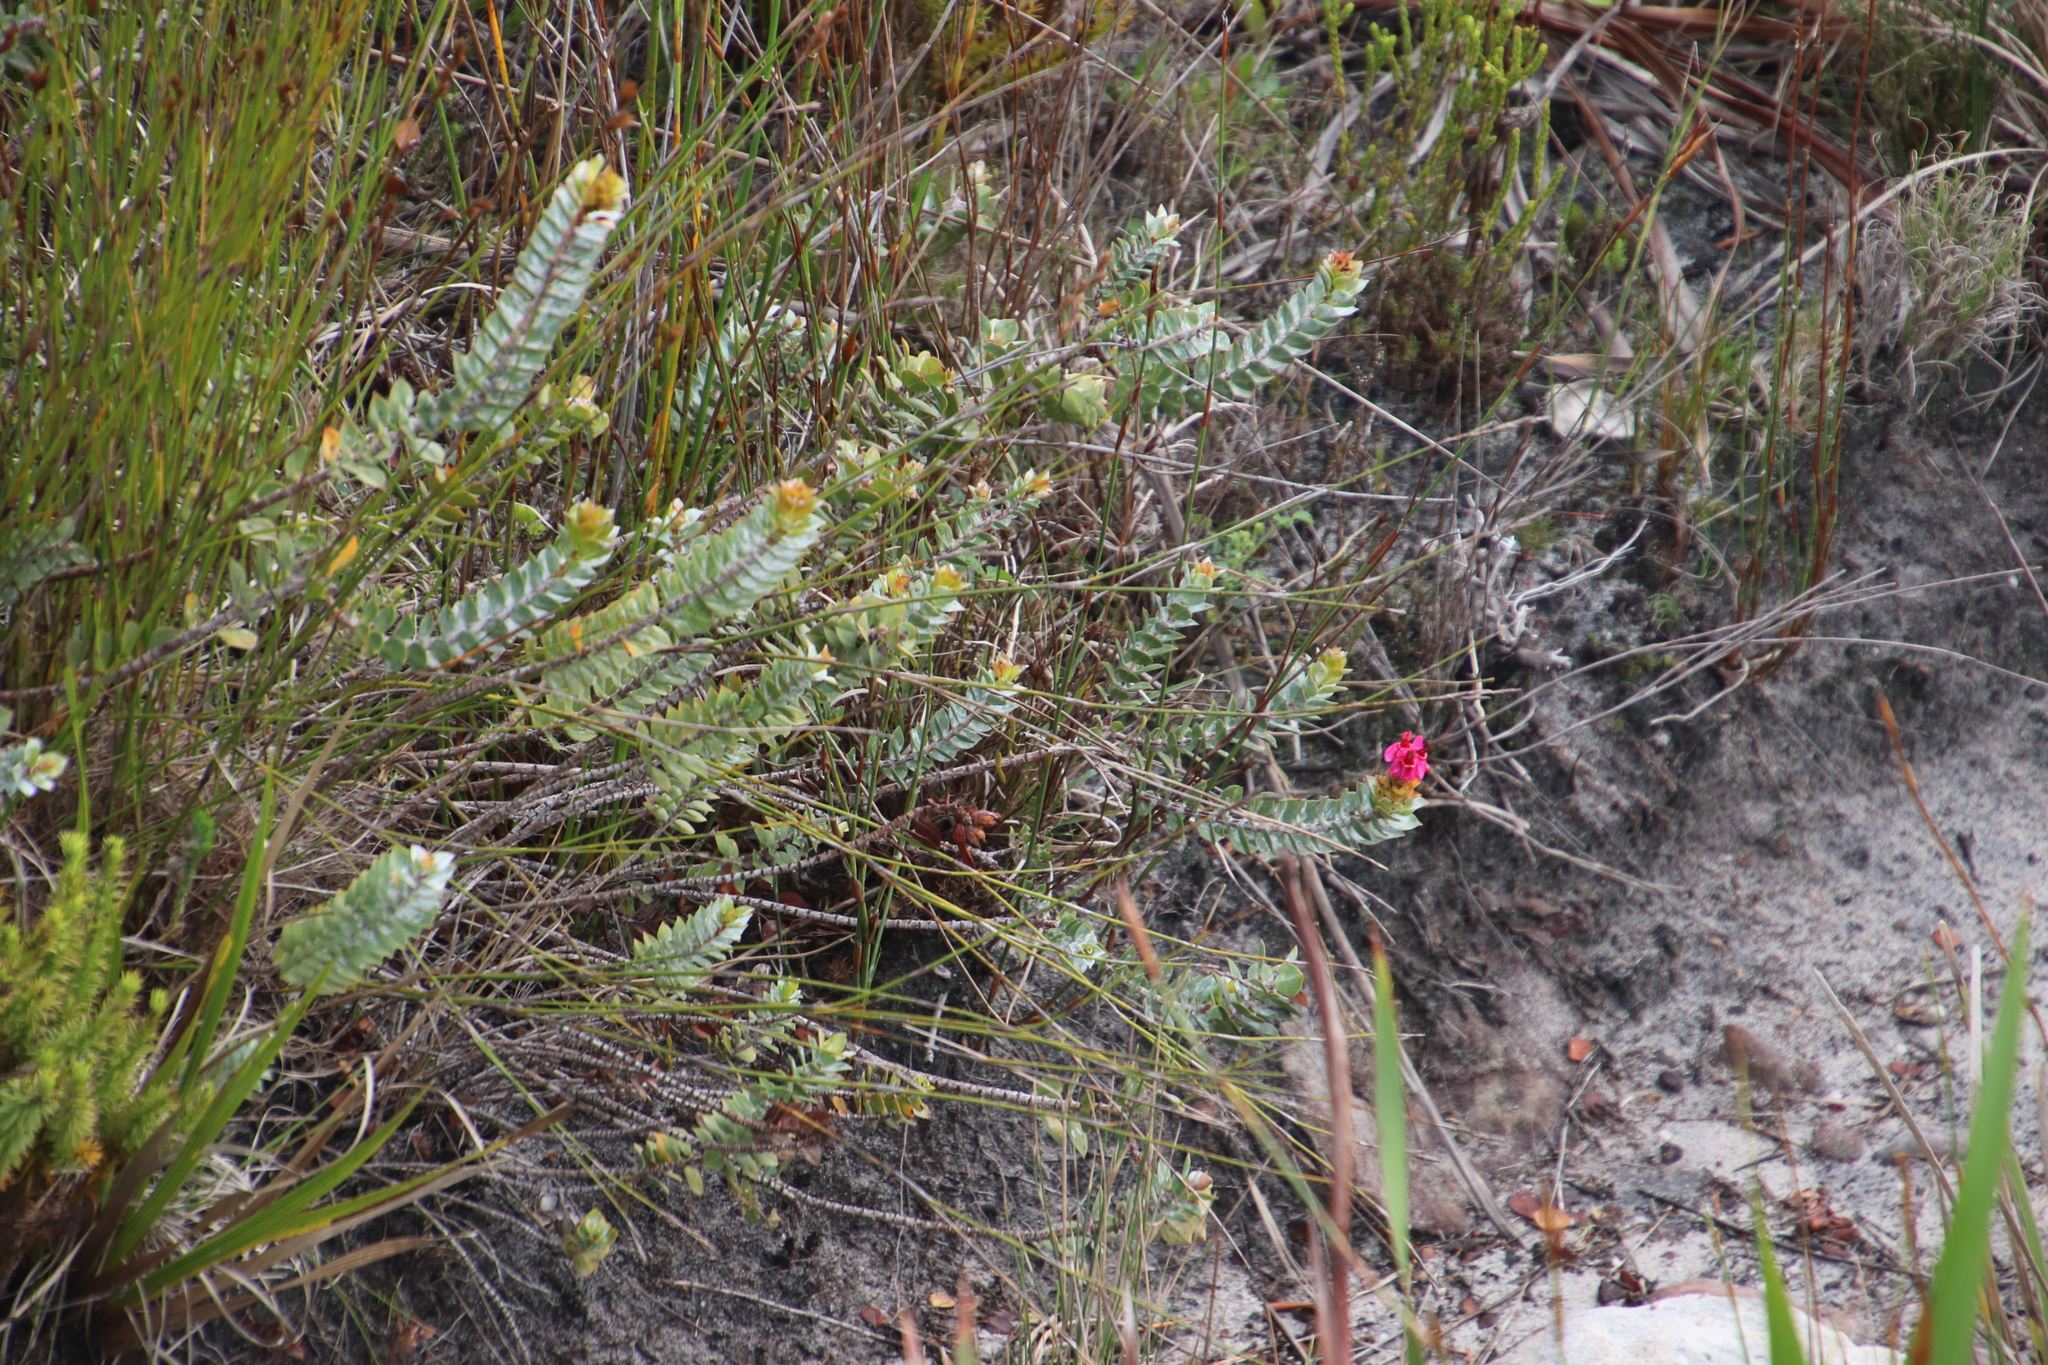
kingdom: Plantae
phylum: Tracheophyta
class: Magnoliopsida
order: Myrtales
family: Penaeaceae
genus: Saltera
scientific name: Saltera sarcocolla
